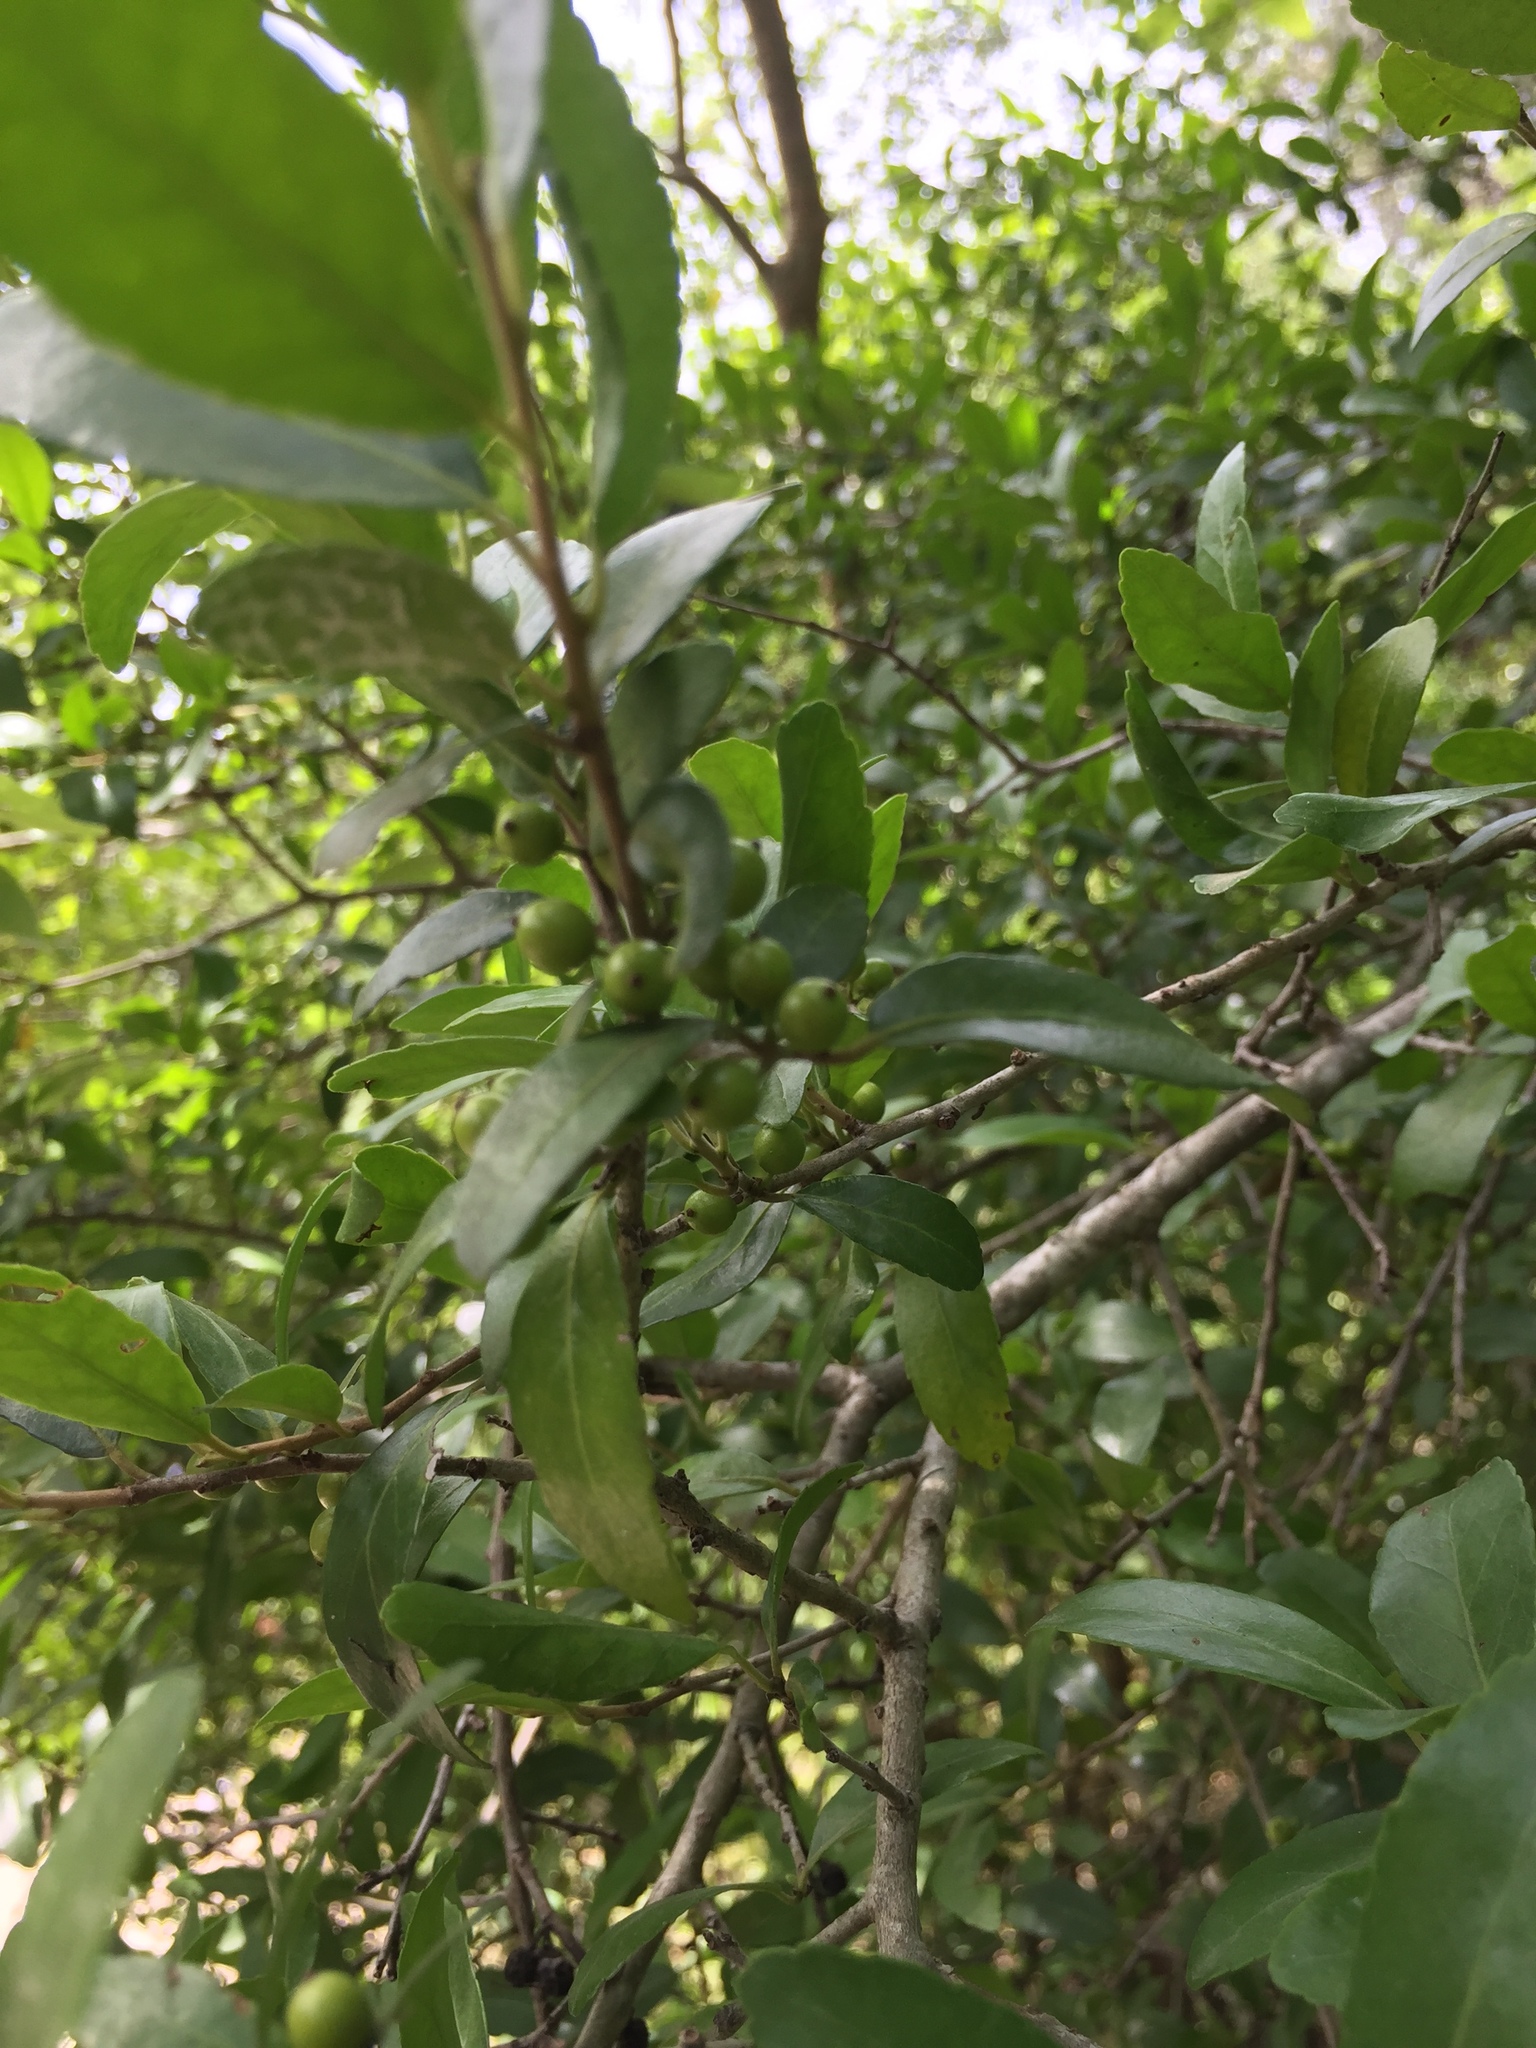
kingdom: Plantae
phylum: Tracheophyta
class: Magnoliopsida
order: Aquifoliales
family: Aquifoliaceae
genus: Ilex
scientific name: Ilex vomitoria
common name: Yaupon holly
